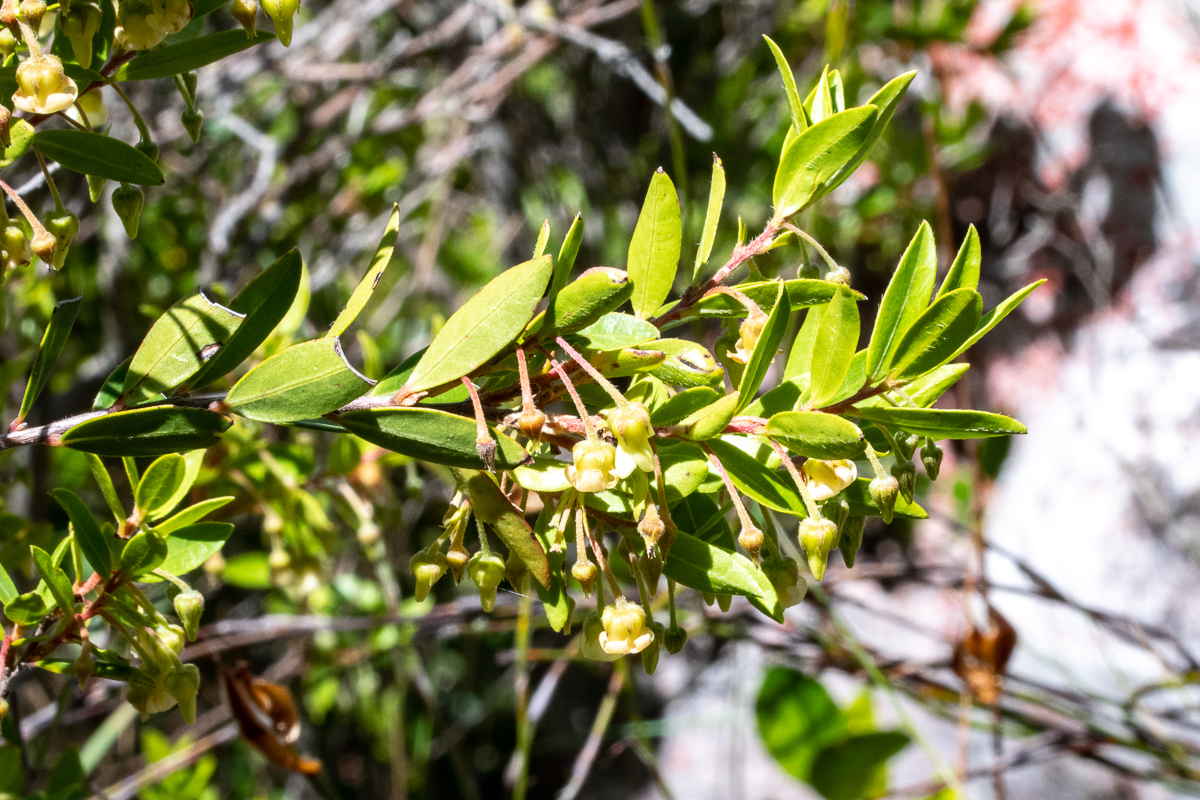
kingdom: Plantae
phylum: Tracheophyta
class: Magnoliopsida
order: Ericales
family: Ebenaceae
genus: Diospyros
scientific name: Diospyros glabra
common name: Fynbos star apple
